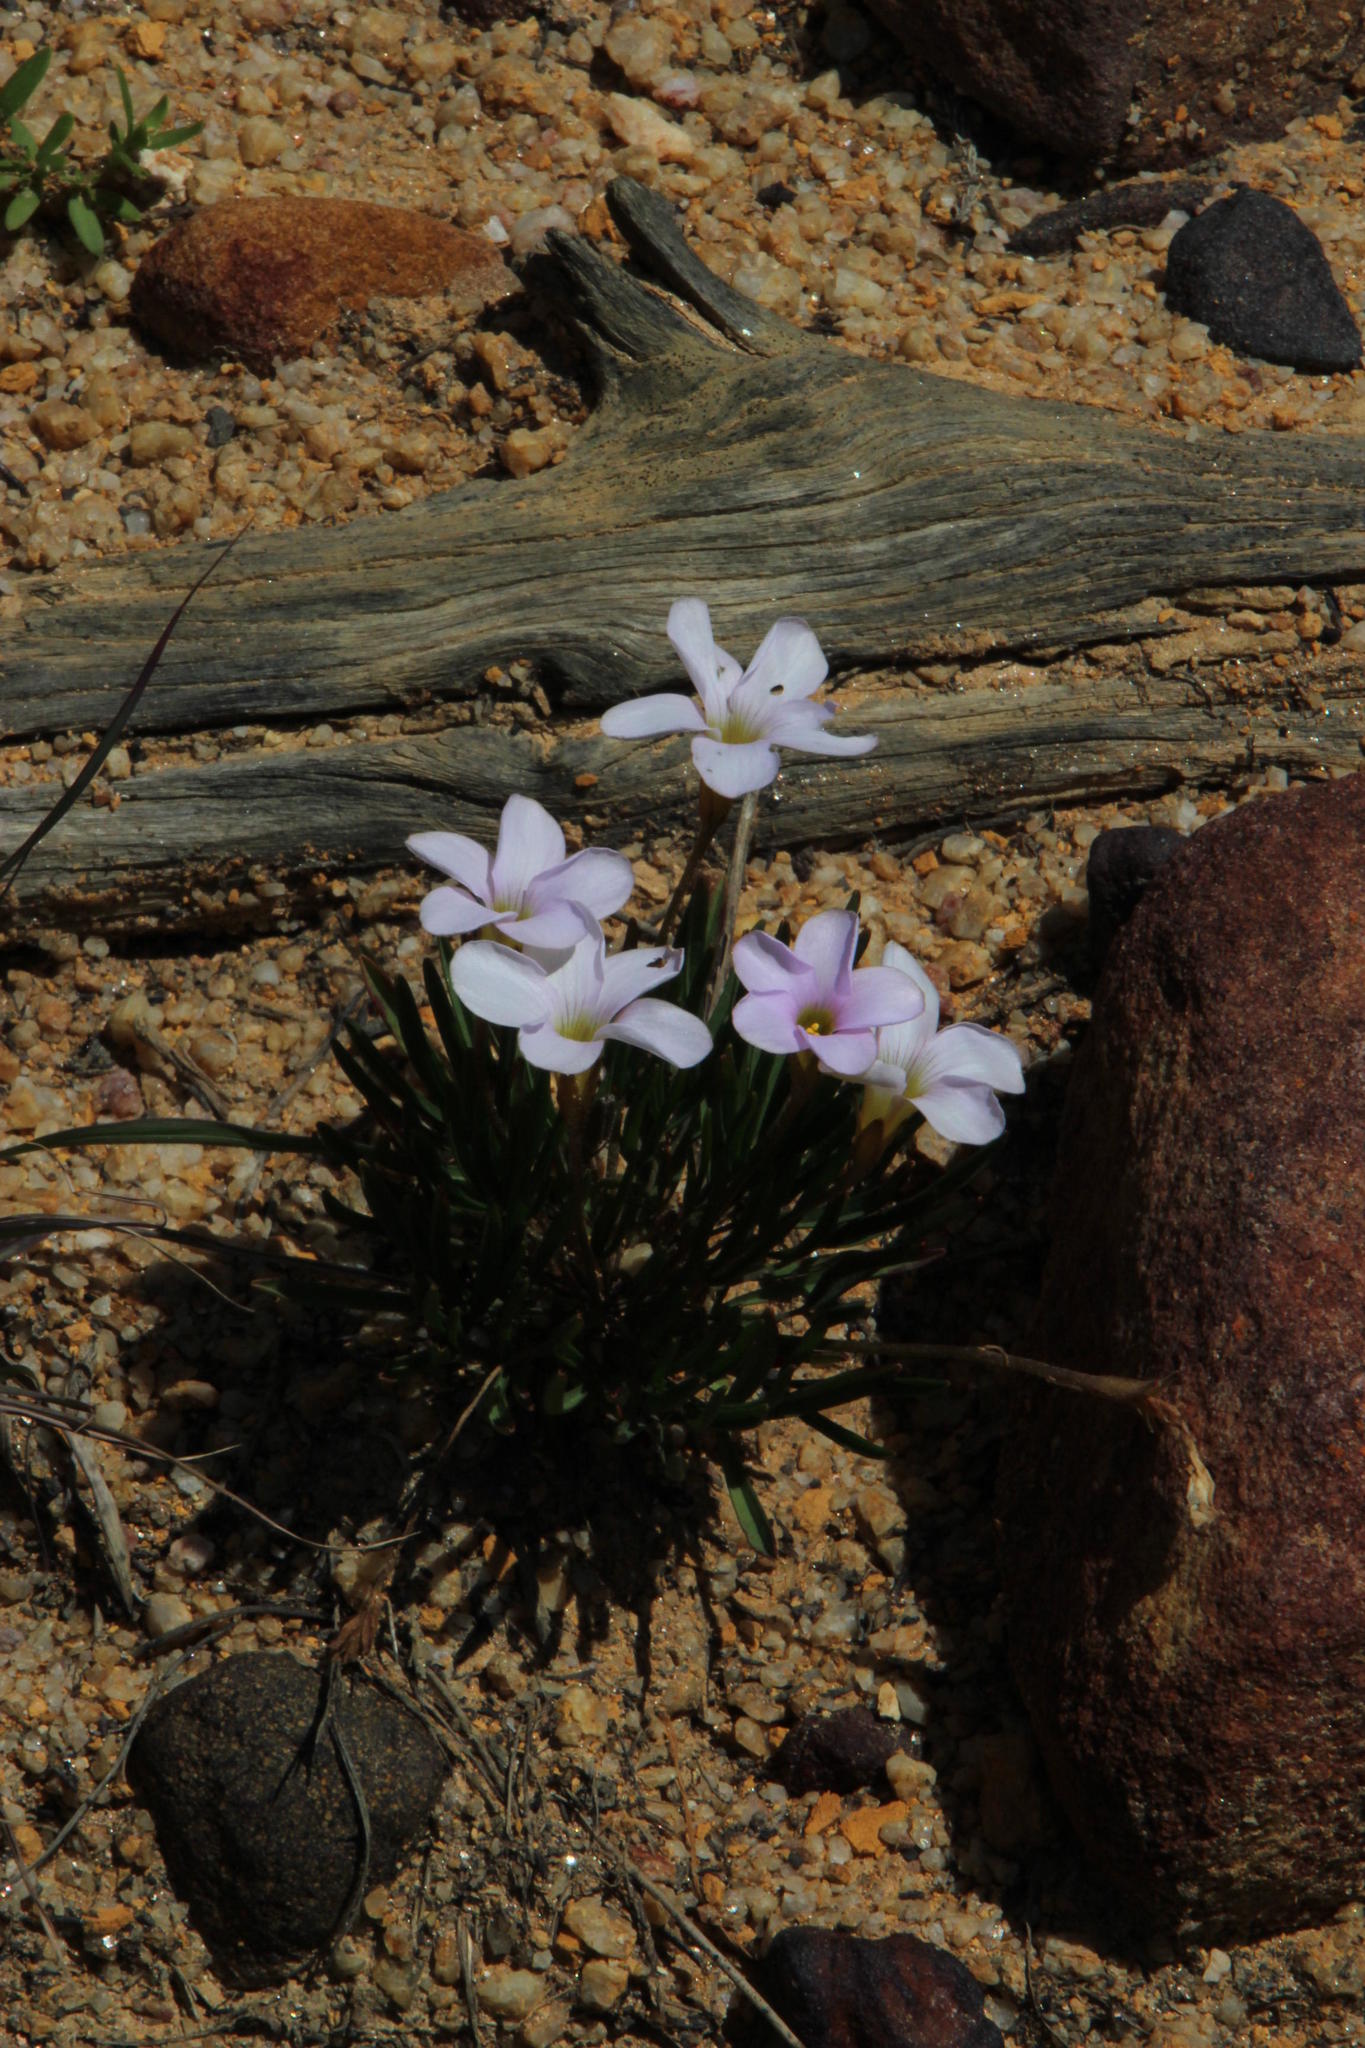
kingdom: Plantae
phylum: Tracheophyta
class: Magnoliopsida
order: Oxalidales
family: Oxalidaceae
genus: Oxalis
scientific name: Oxalis polyphylla
